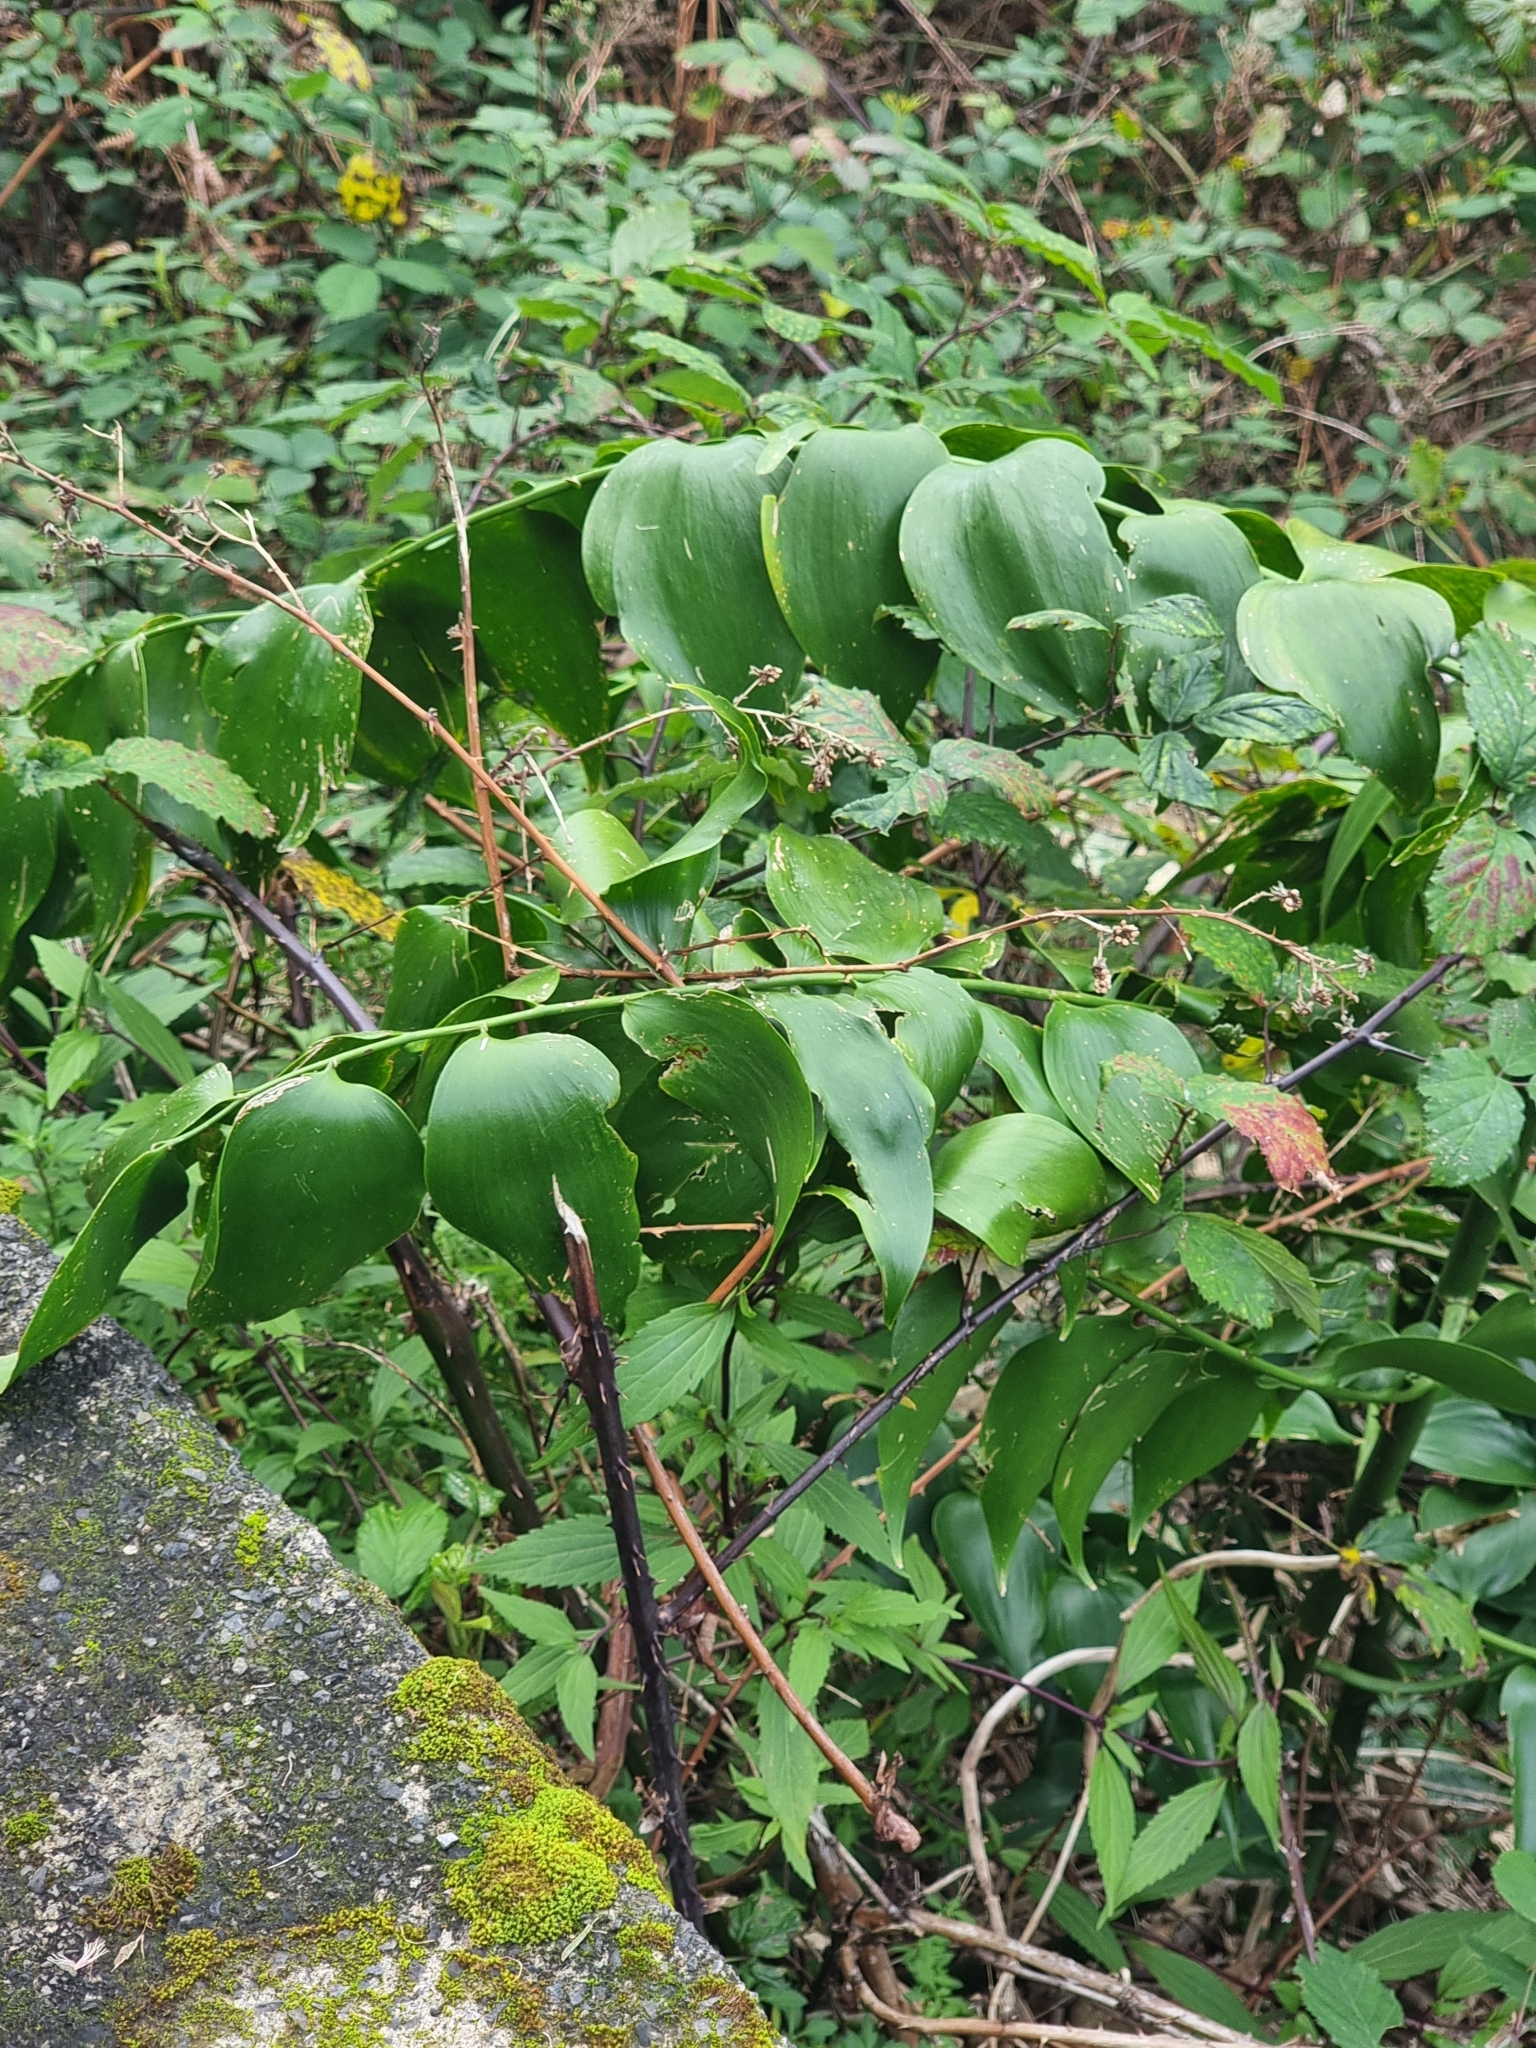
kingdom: Plantae
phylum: Tracheophyta
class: Liliopsida
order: Asparagales
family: Asparagaceae
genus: Semele
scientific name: Semele androgyna
